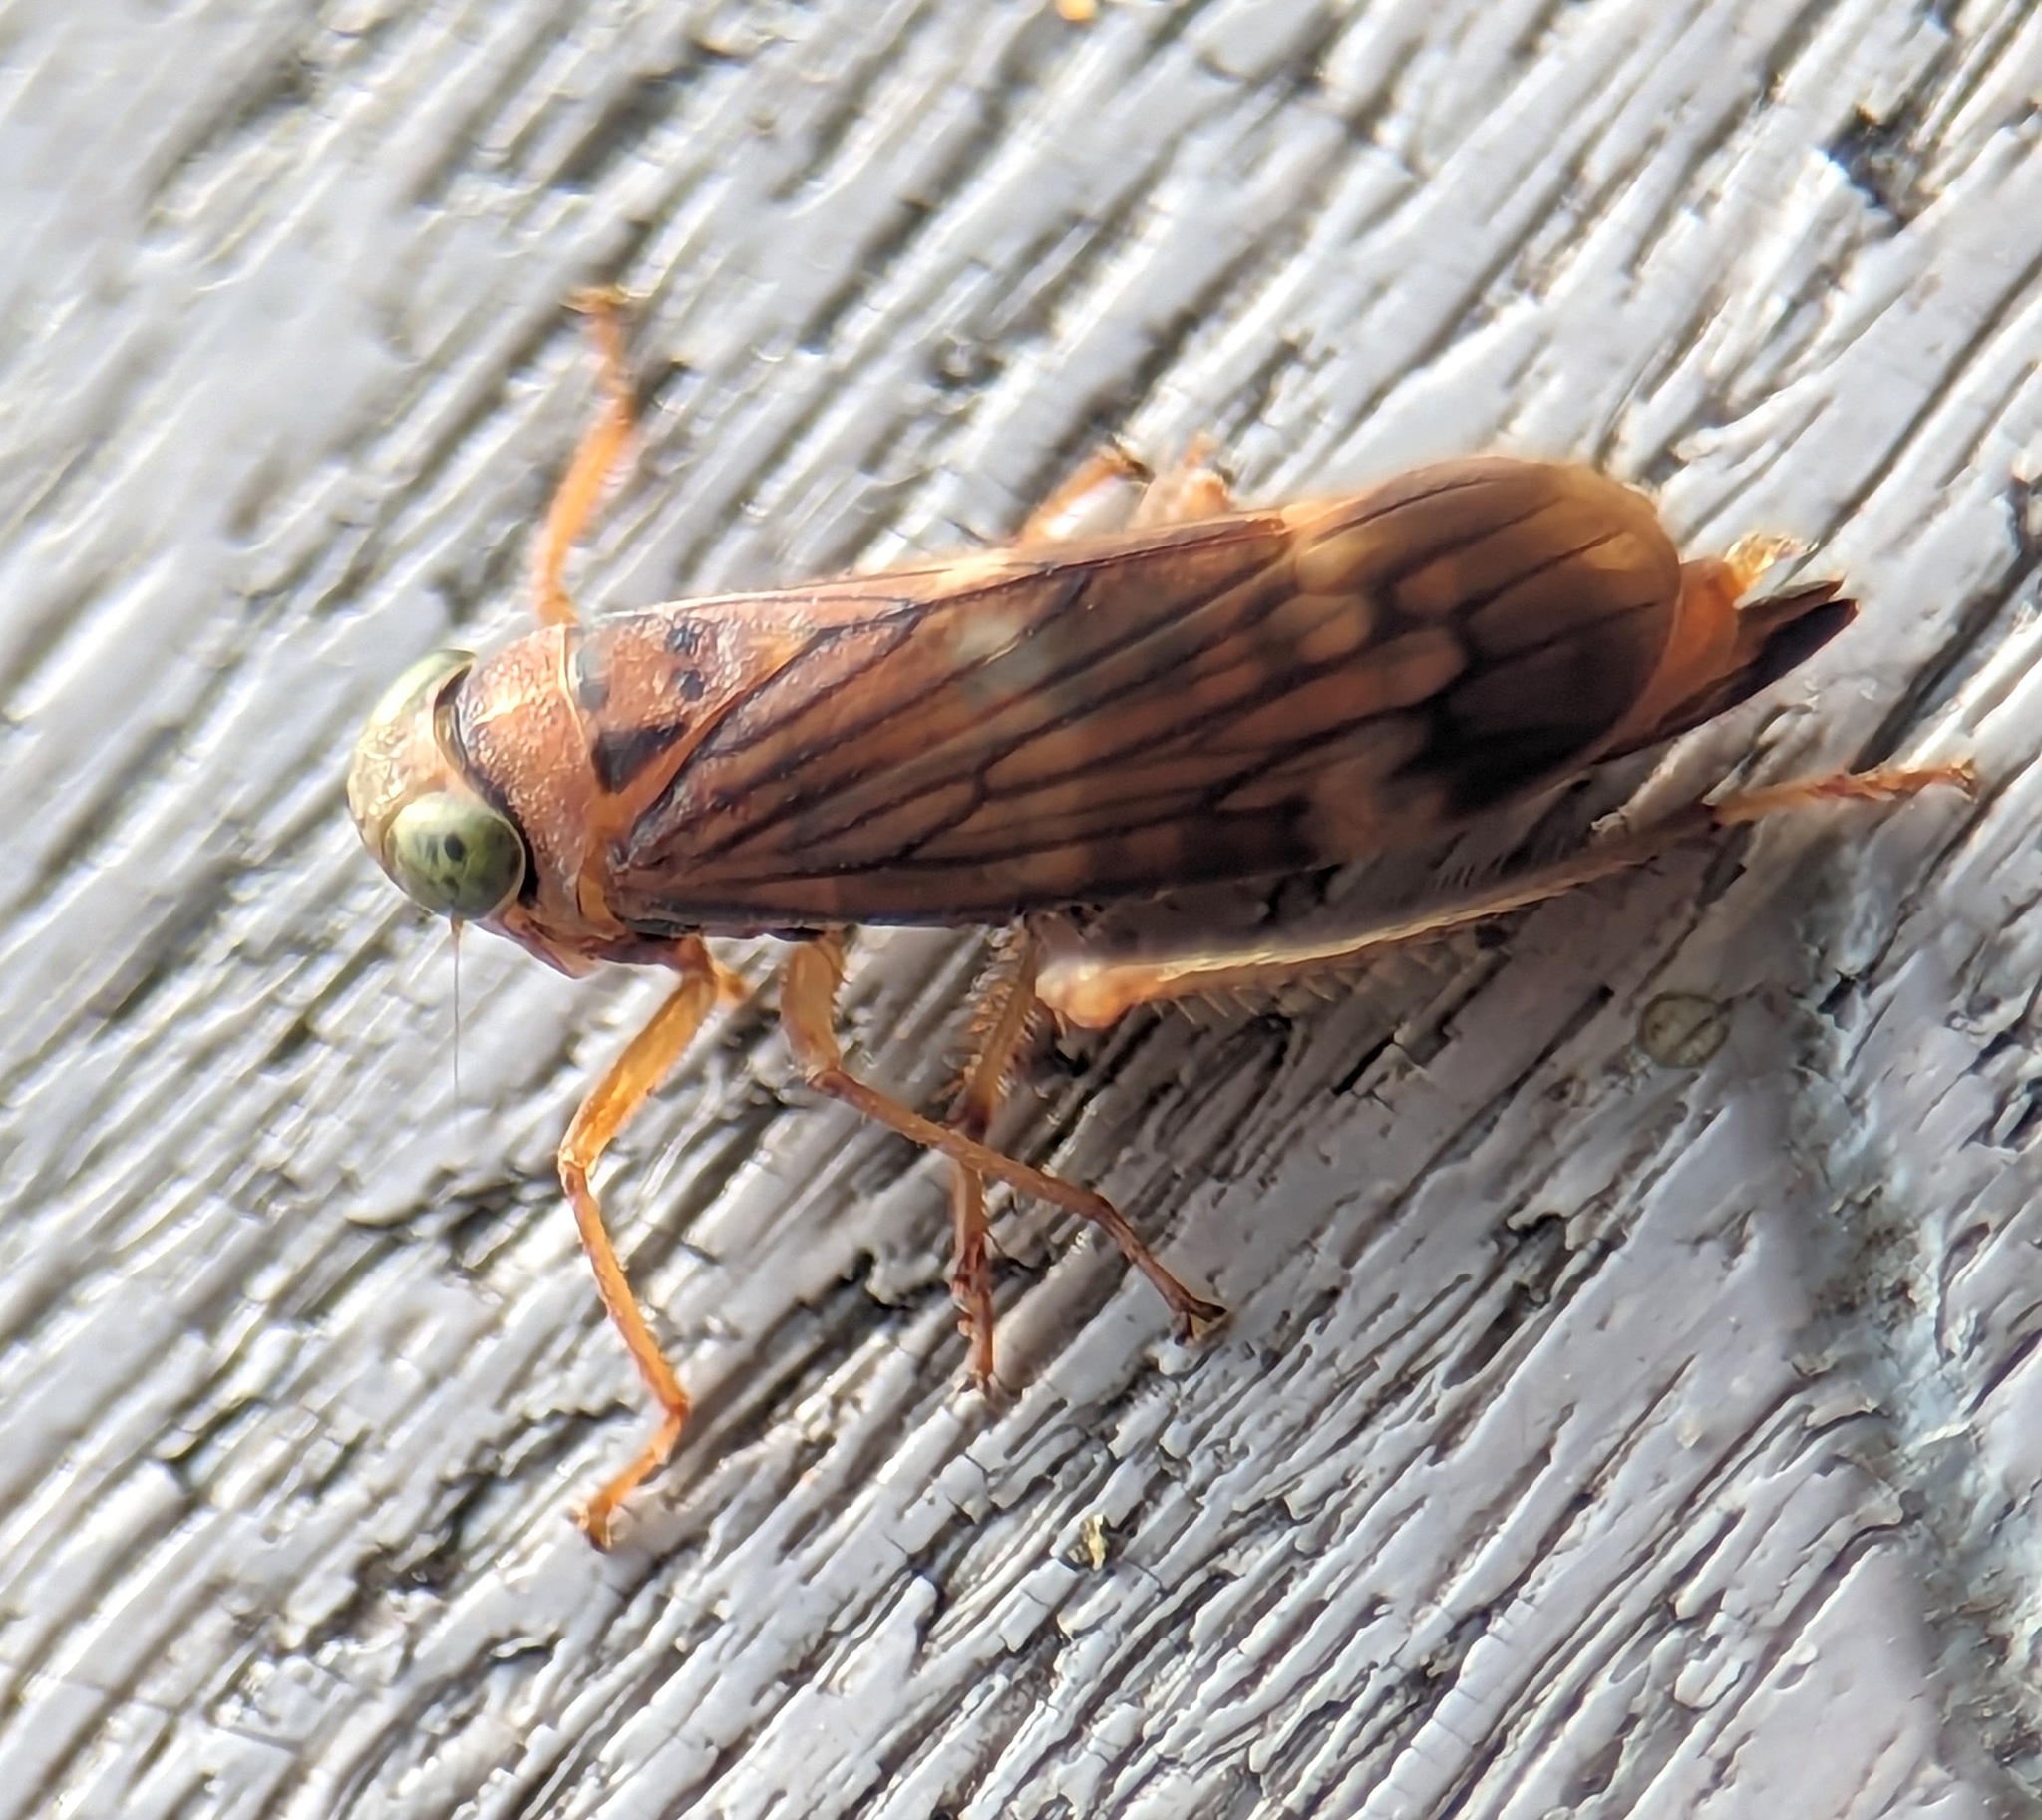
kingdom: Animalia
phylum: Arthropoda
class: Insecta
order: Hemiptera
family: Cicadellidae
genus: Jikradia
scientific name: Jikradia olitoria
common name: Coppery leafhopper
